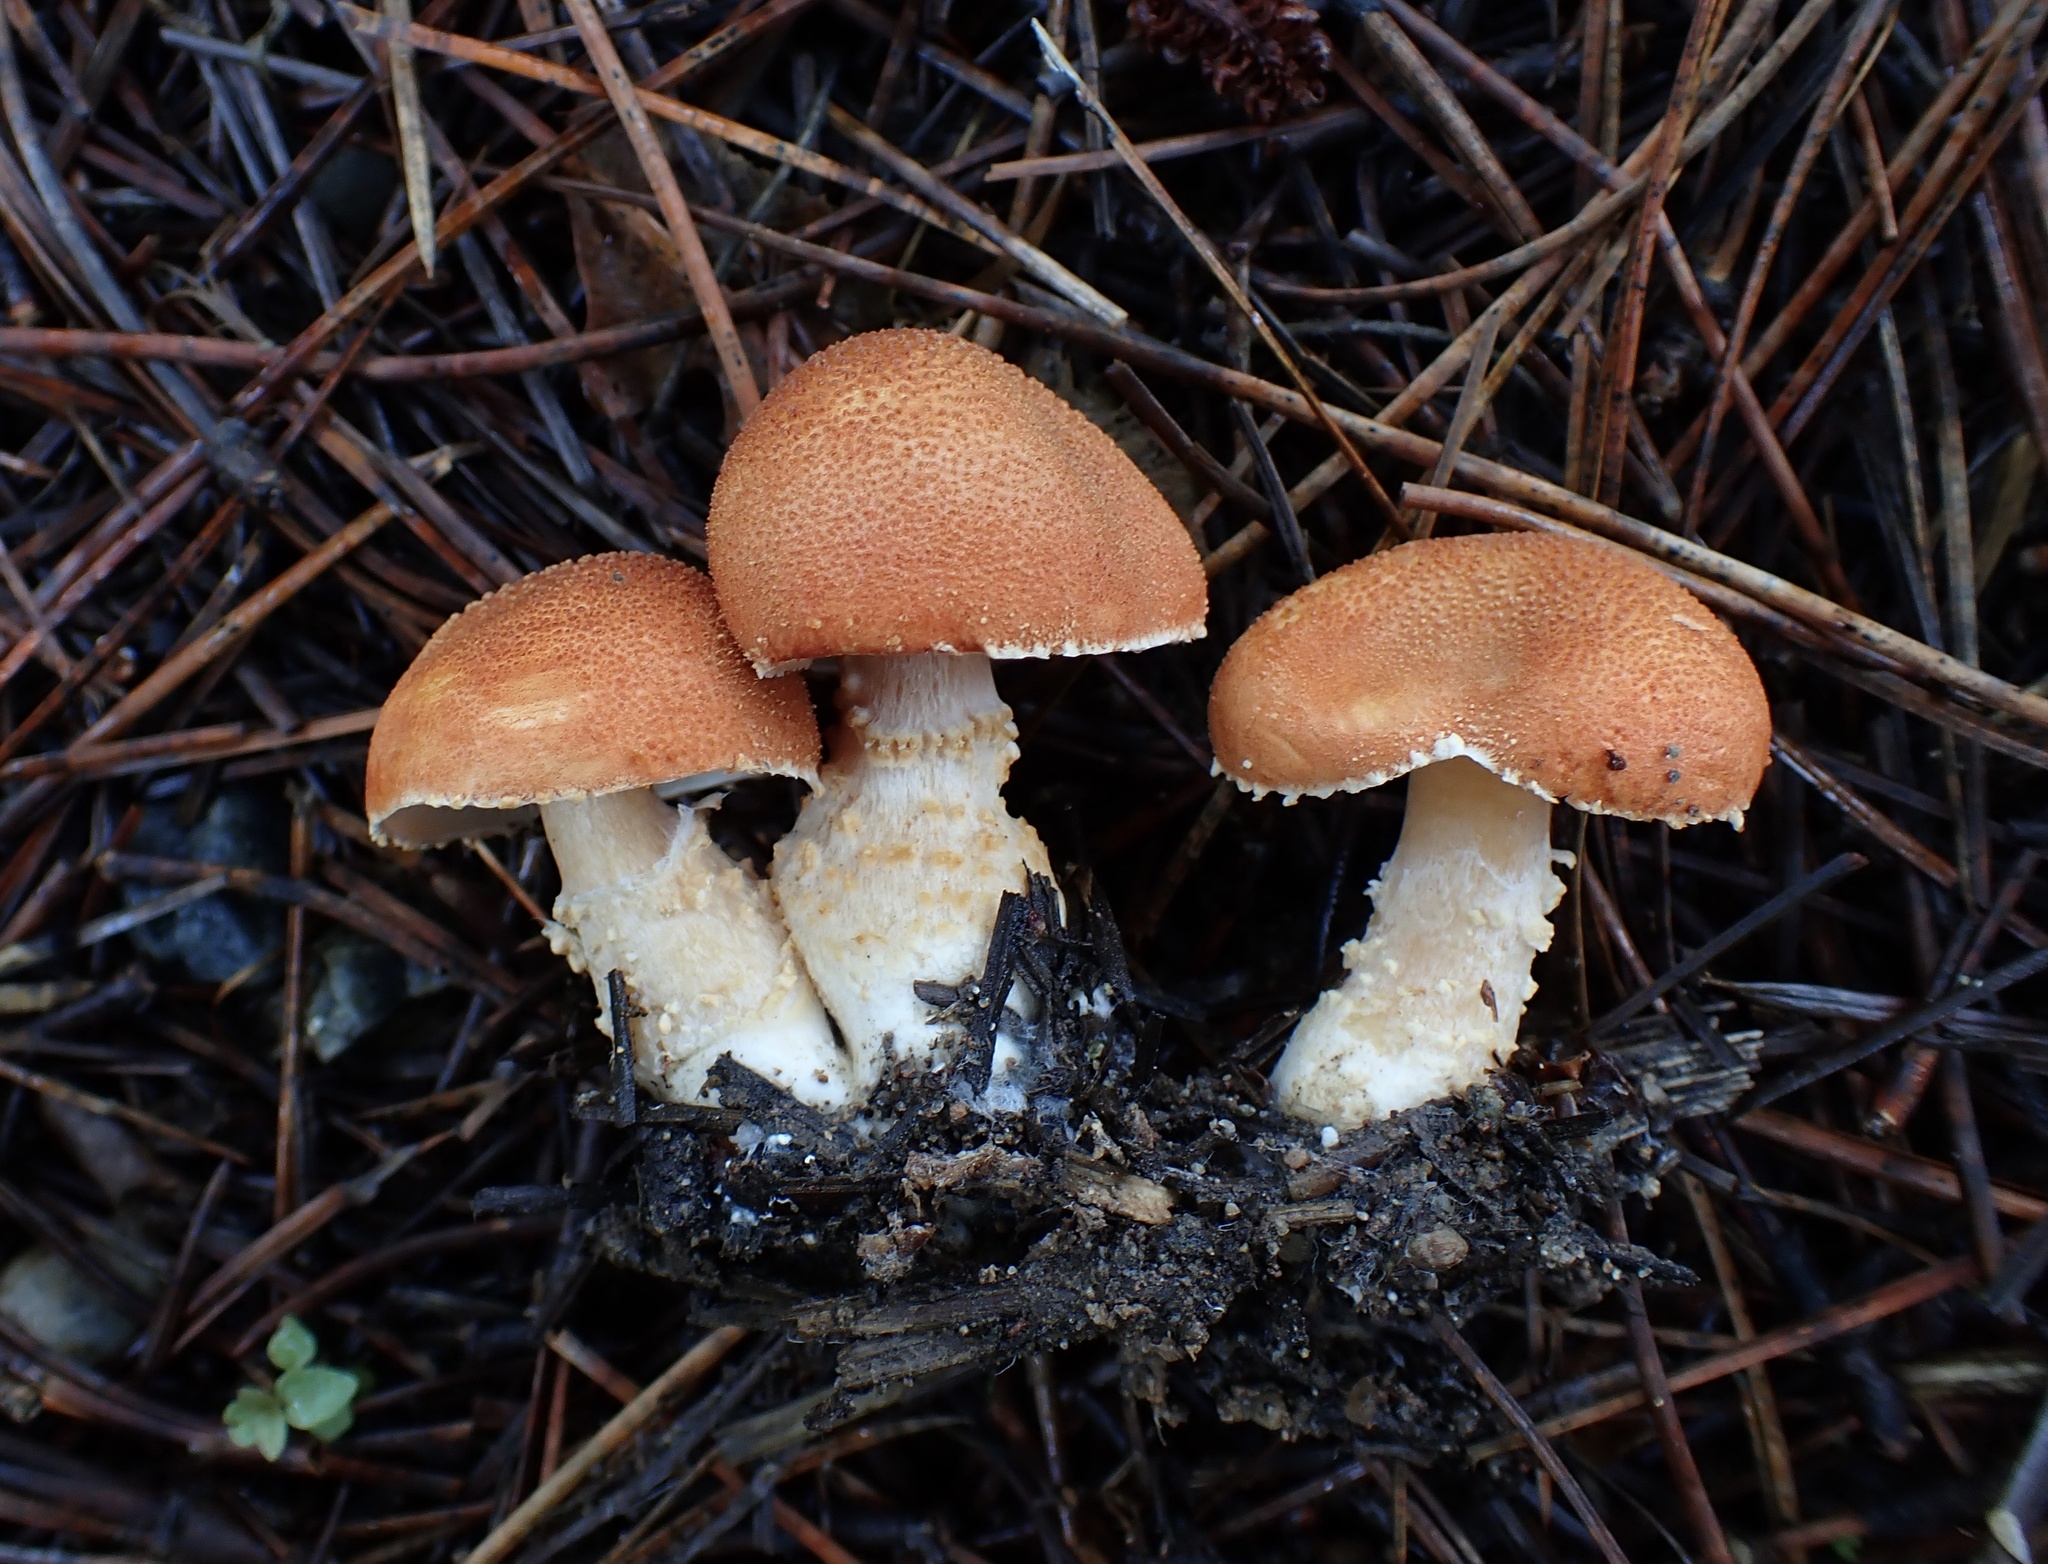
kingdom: Fungi
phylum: Basidiomycota
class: Agaricomycetes
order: Agaricales
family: Agaricaceae
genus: Cystodermella
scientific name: Cystodermella cinnabarina
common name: Cinnabar powdercap
